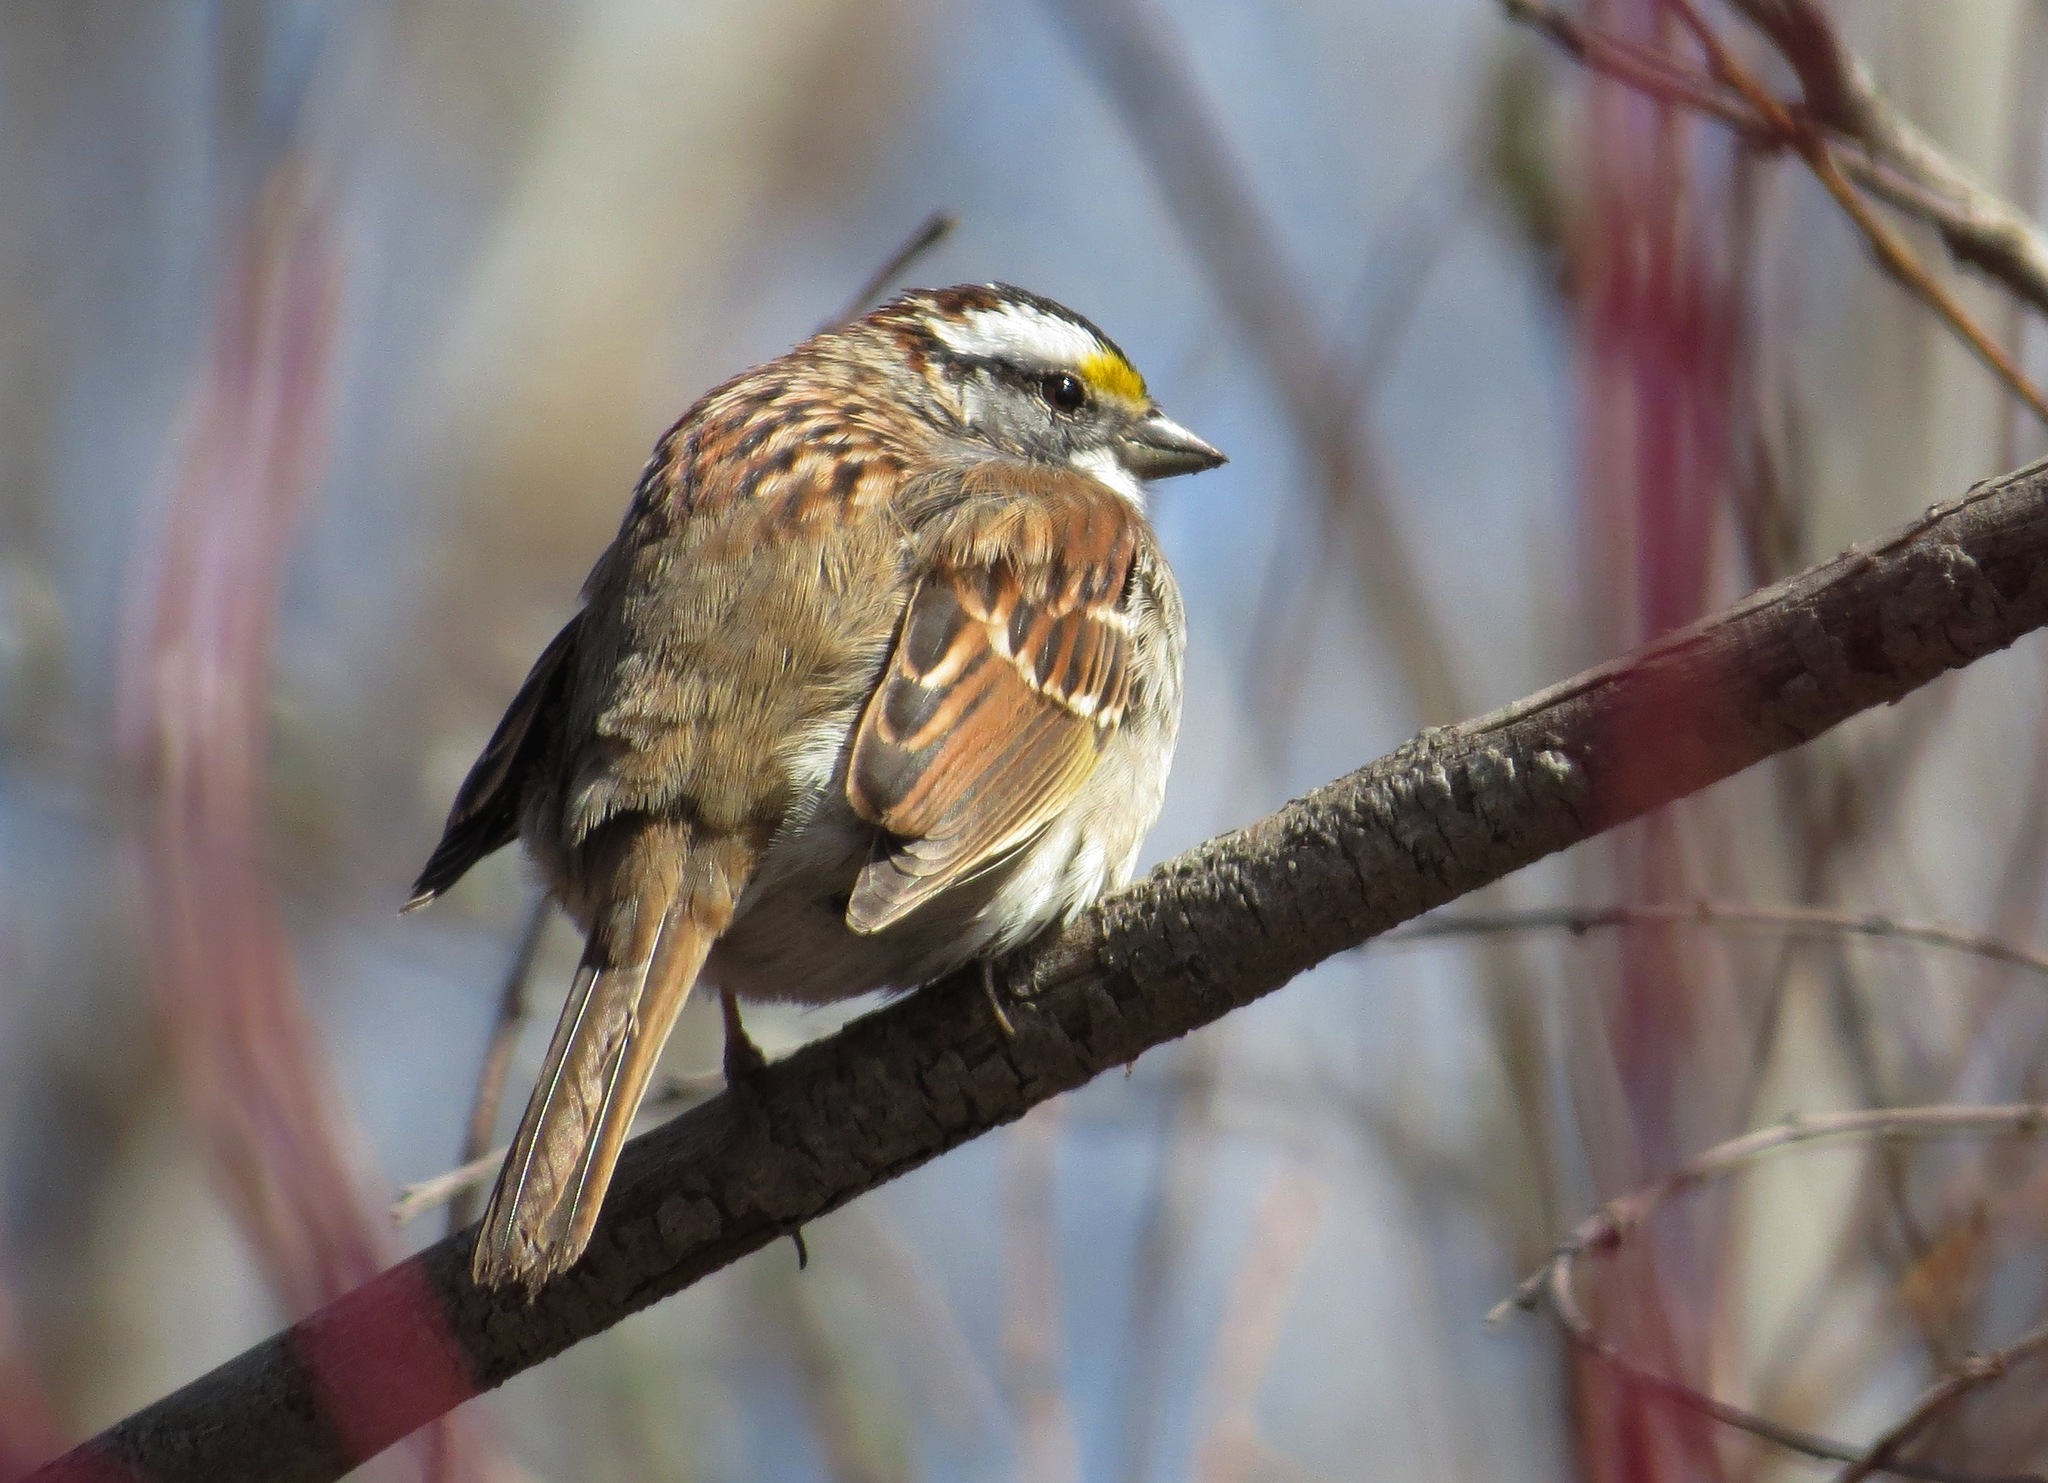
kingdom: Animalia
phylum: Chordata
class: Aves
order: Passeriformes
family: Passerellidae
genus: Zonotrichia
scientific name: Zonotrichia albicollis
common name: White-throated sparrow
